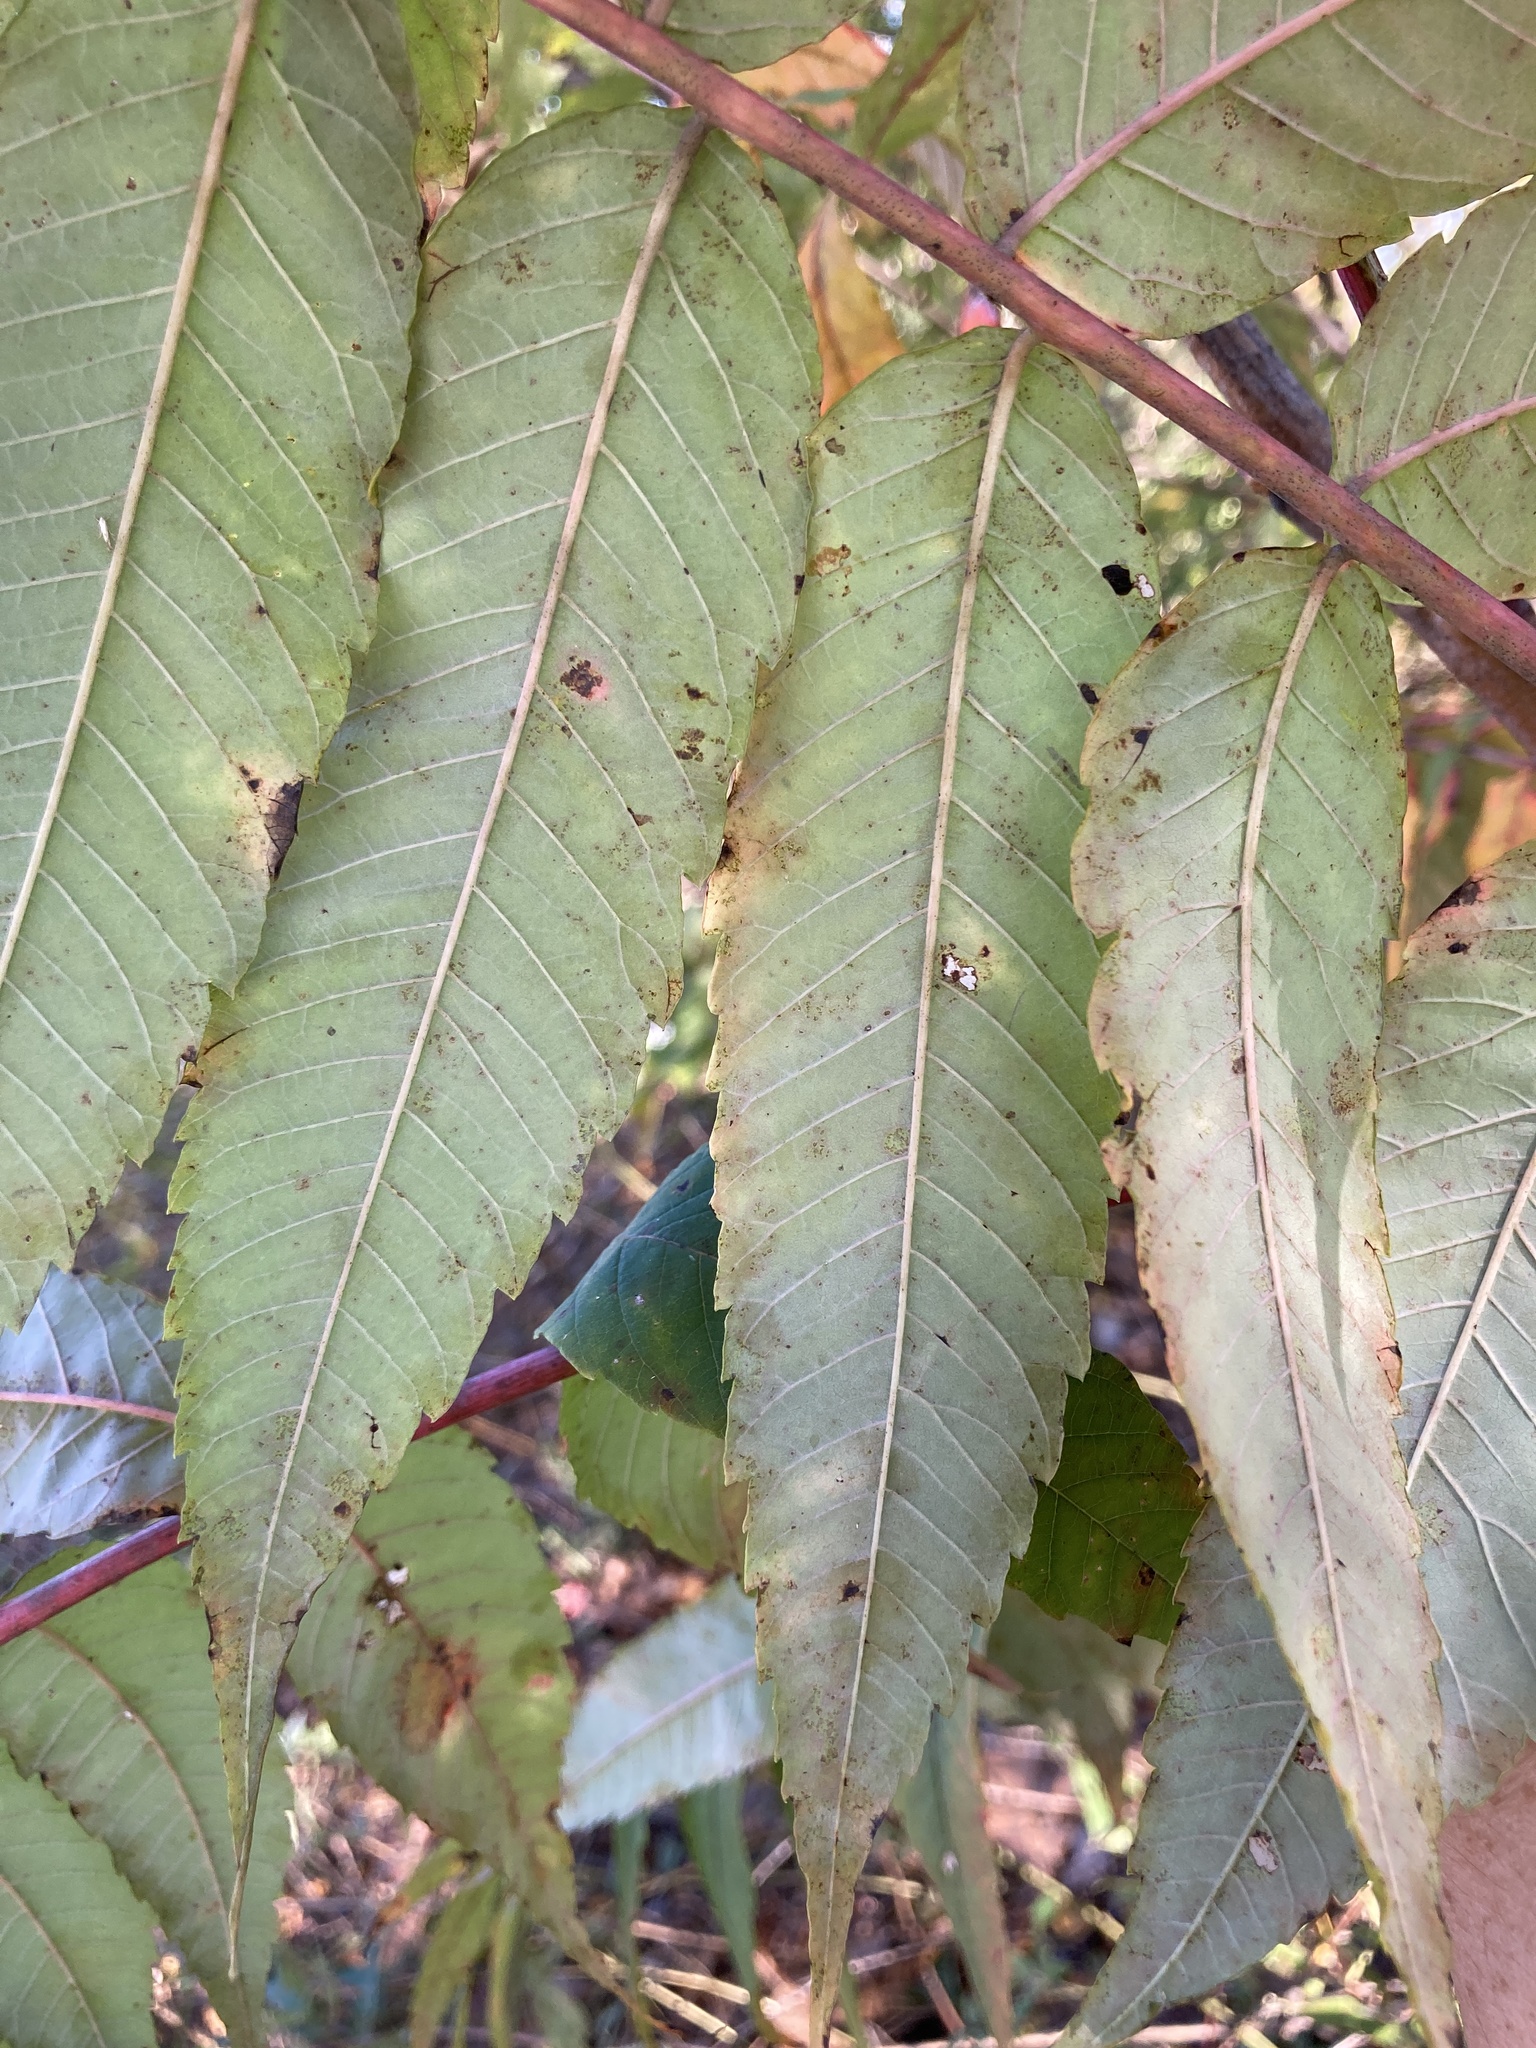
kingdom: Plantae
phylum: Tracheophyta
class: Magnoliopsida
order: Sapindales
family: Anacardiaceae
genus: Rhus
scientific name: Rhus glabra
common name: Scarlet sumac
